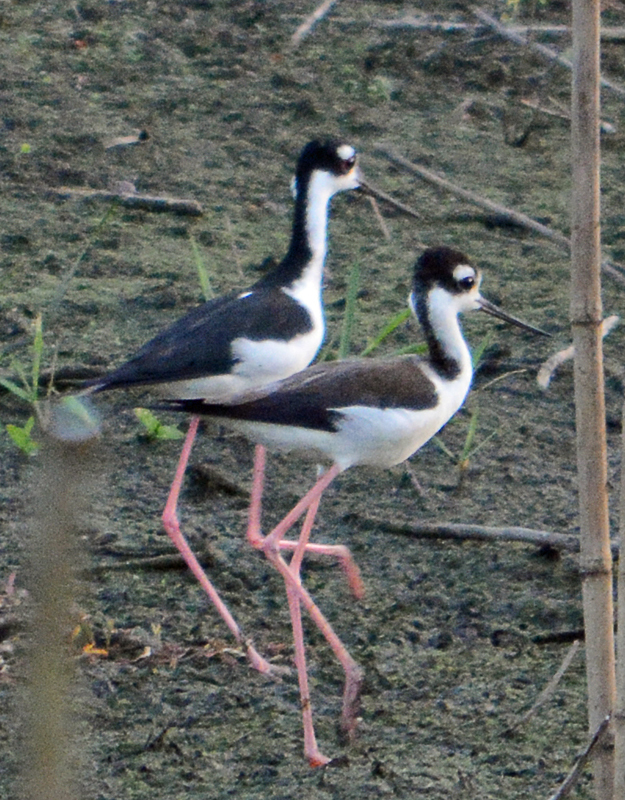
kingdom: Animalia
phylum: Chordata
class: Aves
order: Charadriiformes
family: Recurvirostridae
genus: Himantopus
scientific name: Himantopus mexicanus
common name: Black-necked stilt
